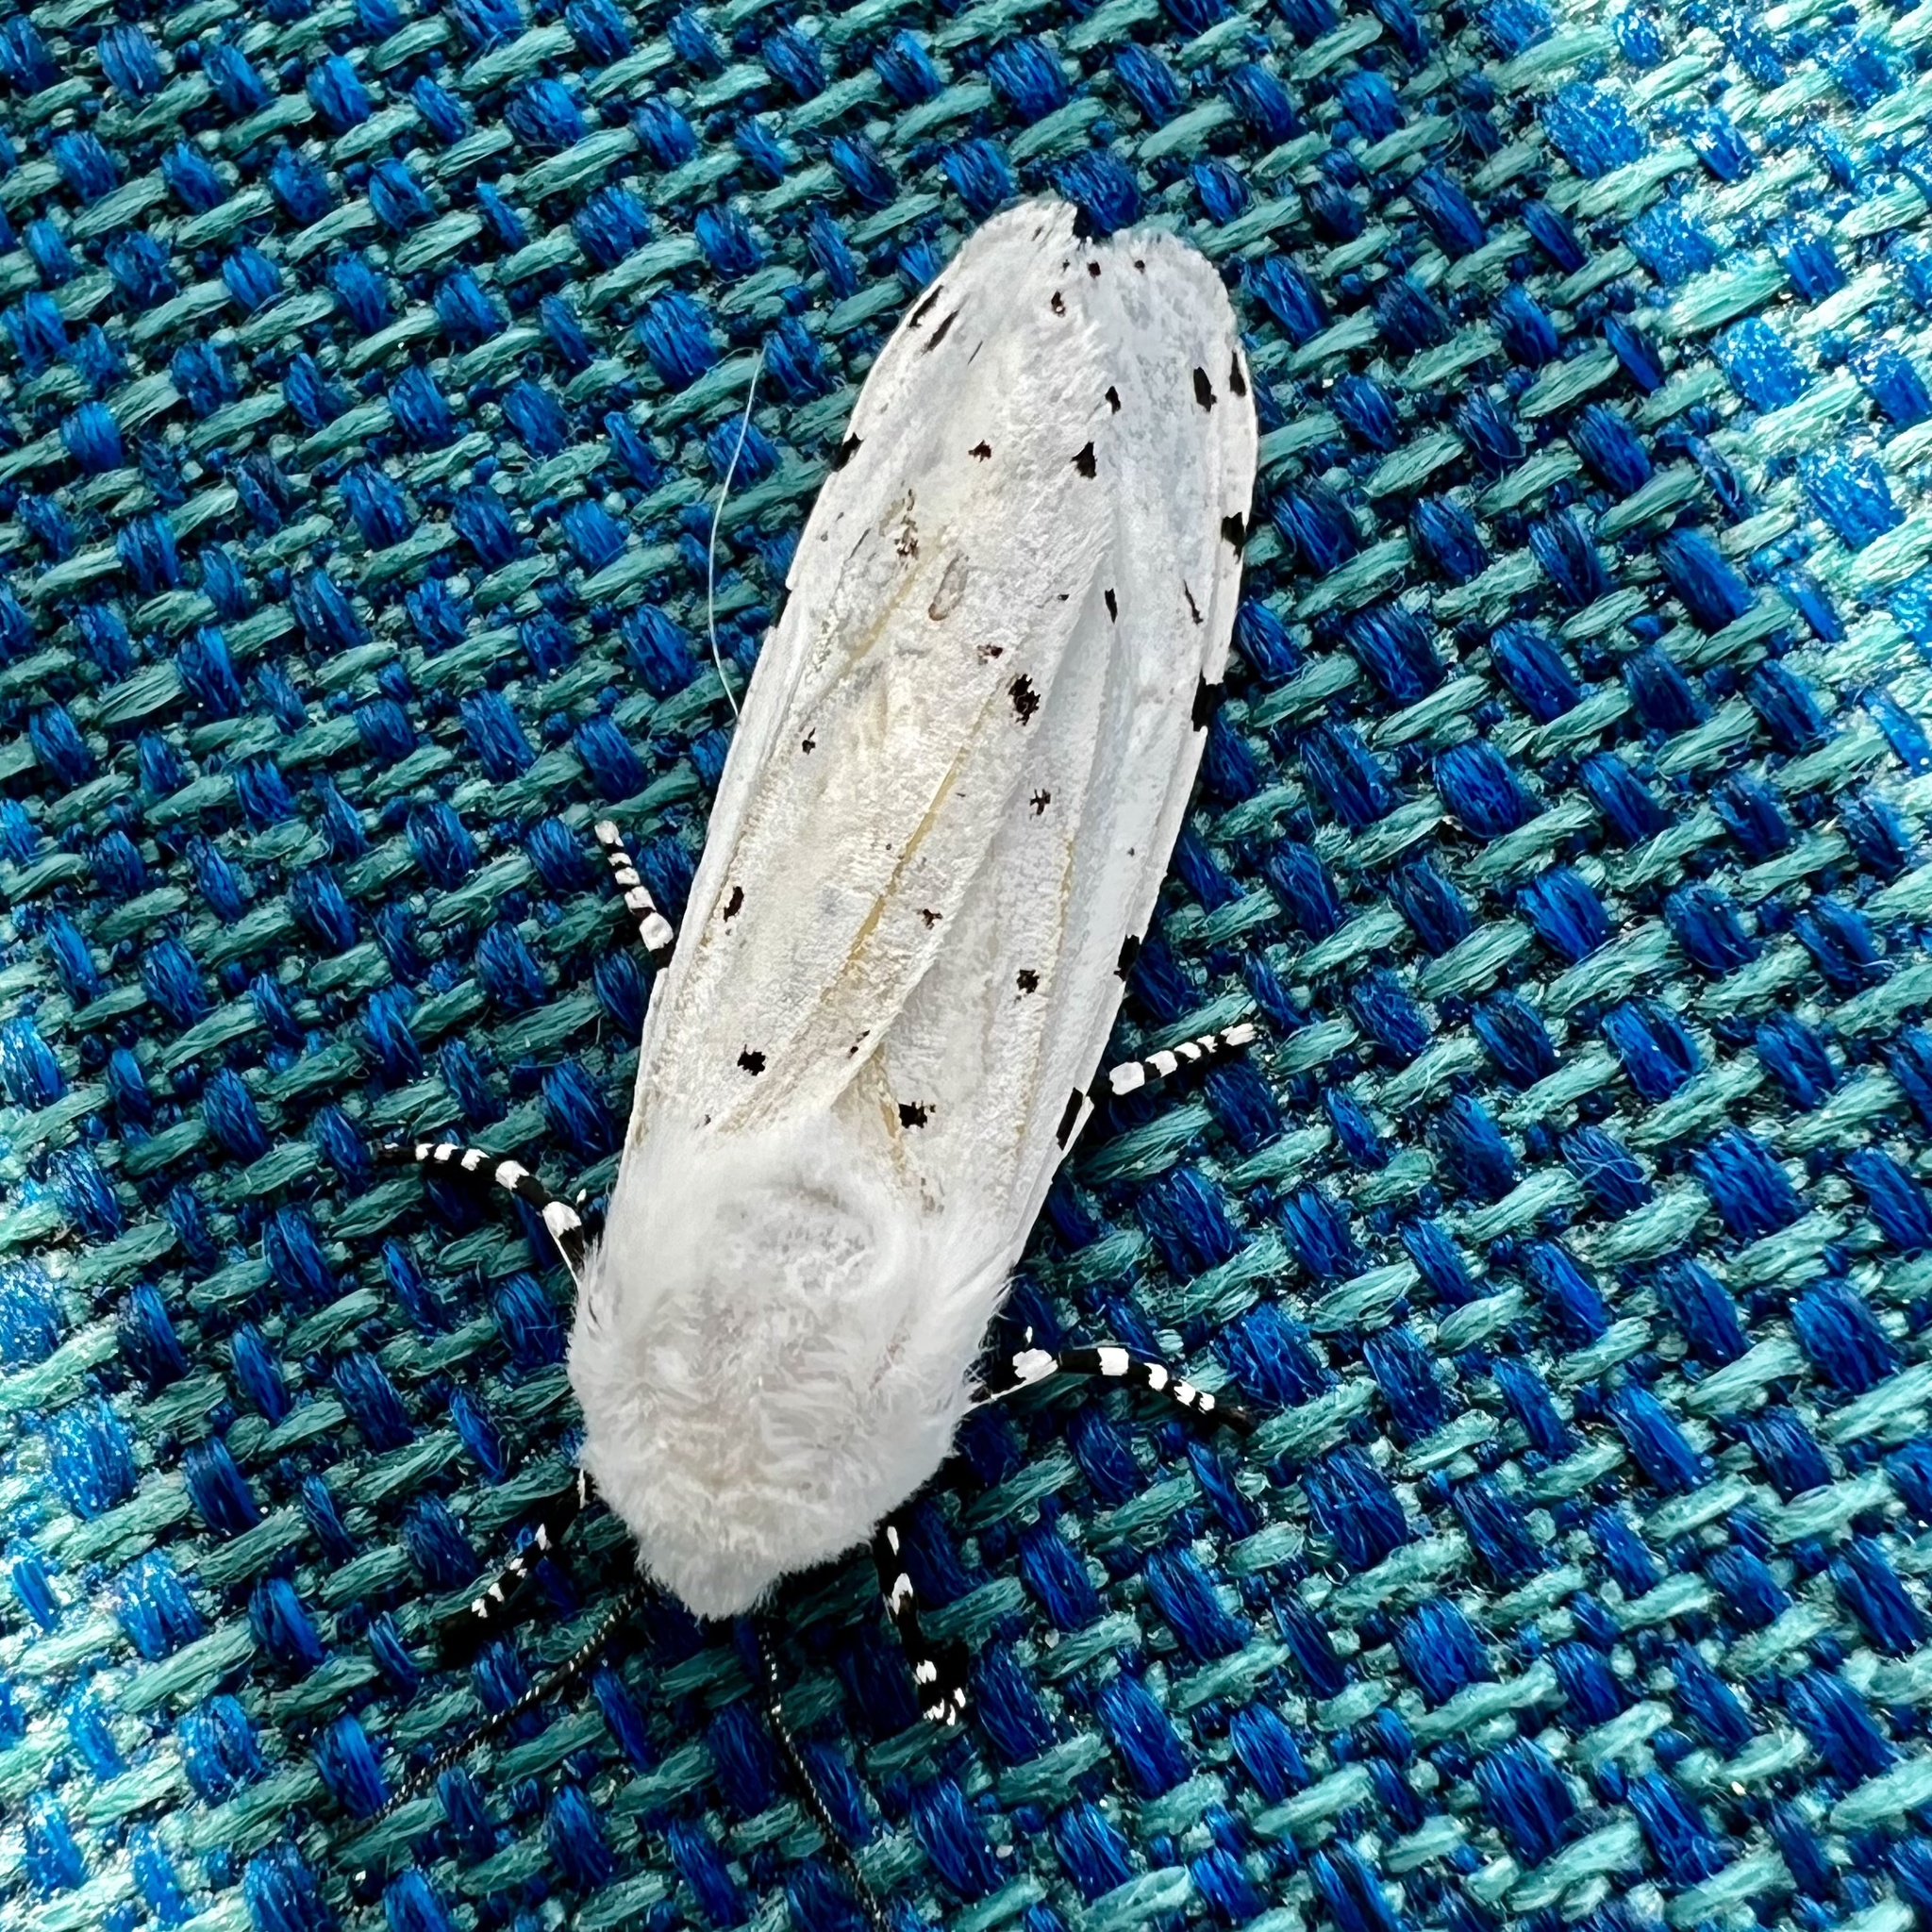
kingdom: Animalia
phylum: Arthropoda
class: Insecta
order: Lepidoptera
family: Erebidae
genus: Estigmene
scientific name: Estigmene acrea
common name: Salt marsh moth
